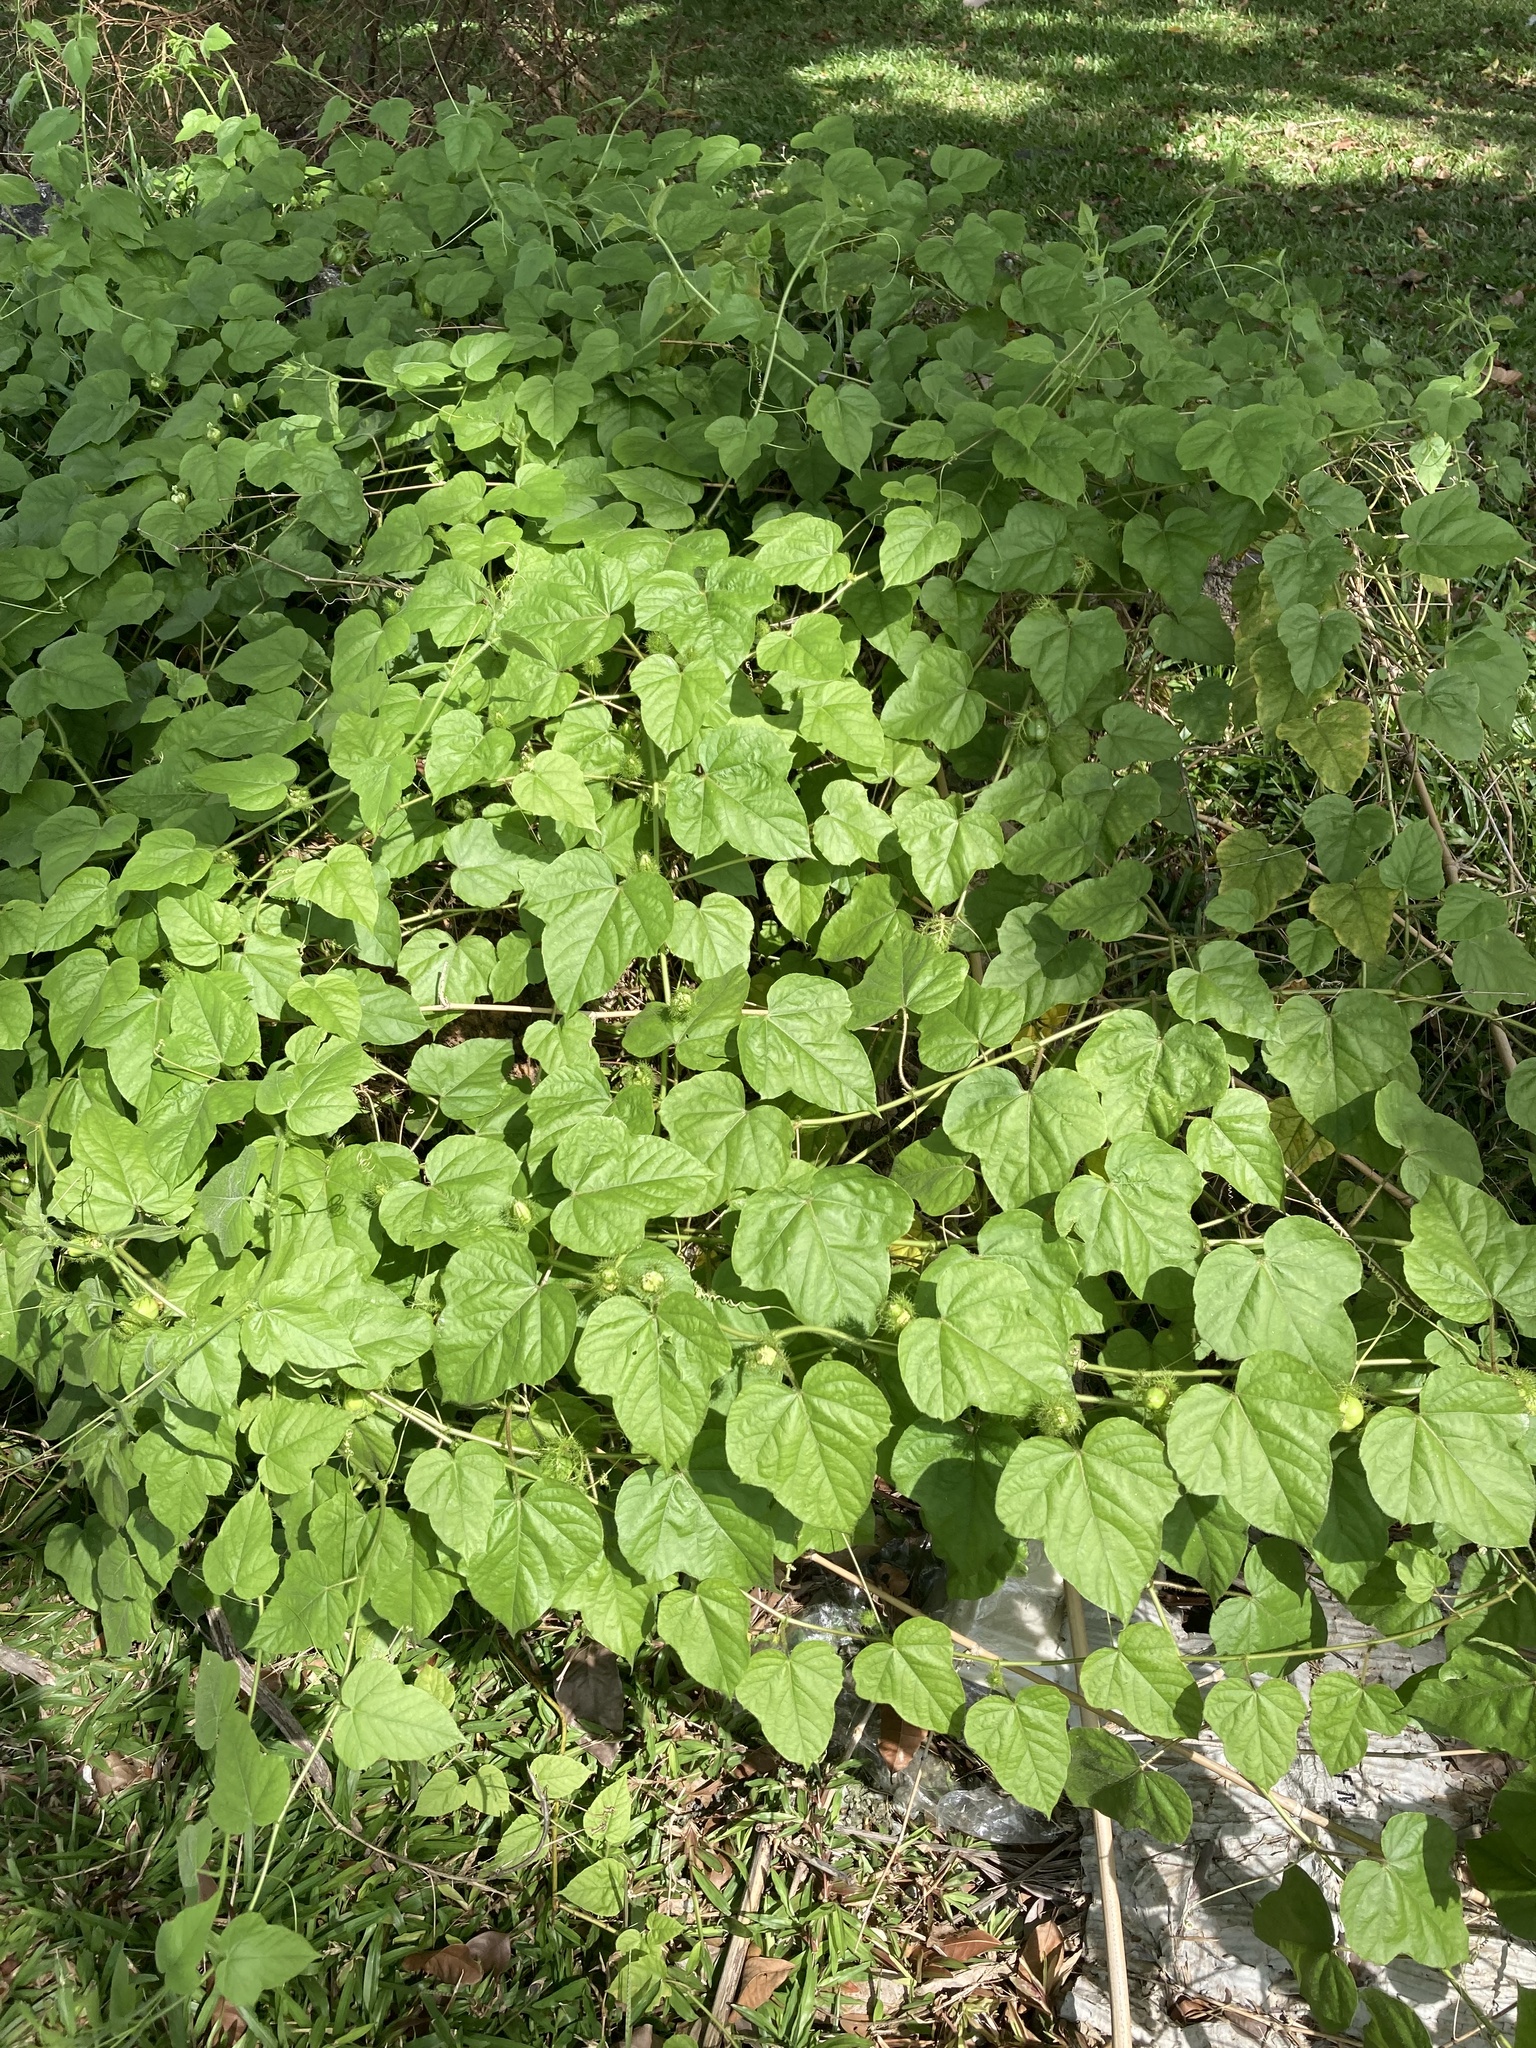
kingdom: Plantae
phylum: Tracheophyta
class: Magnoliopsida
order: Malpighiales
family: Passifloraceae
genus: Passiflora
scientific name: Passiflora foetida
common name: Fetid passionflower
